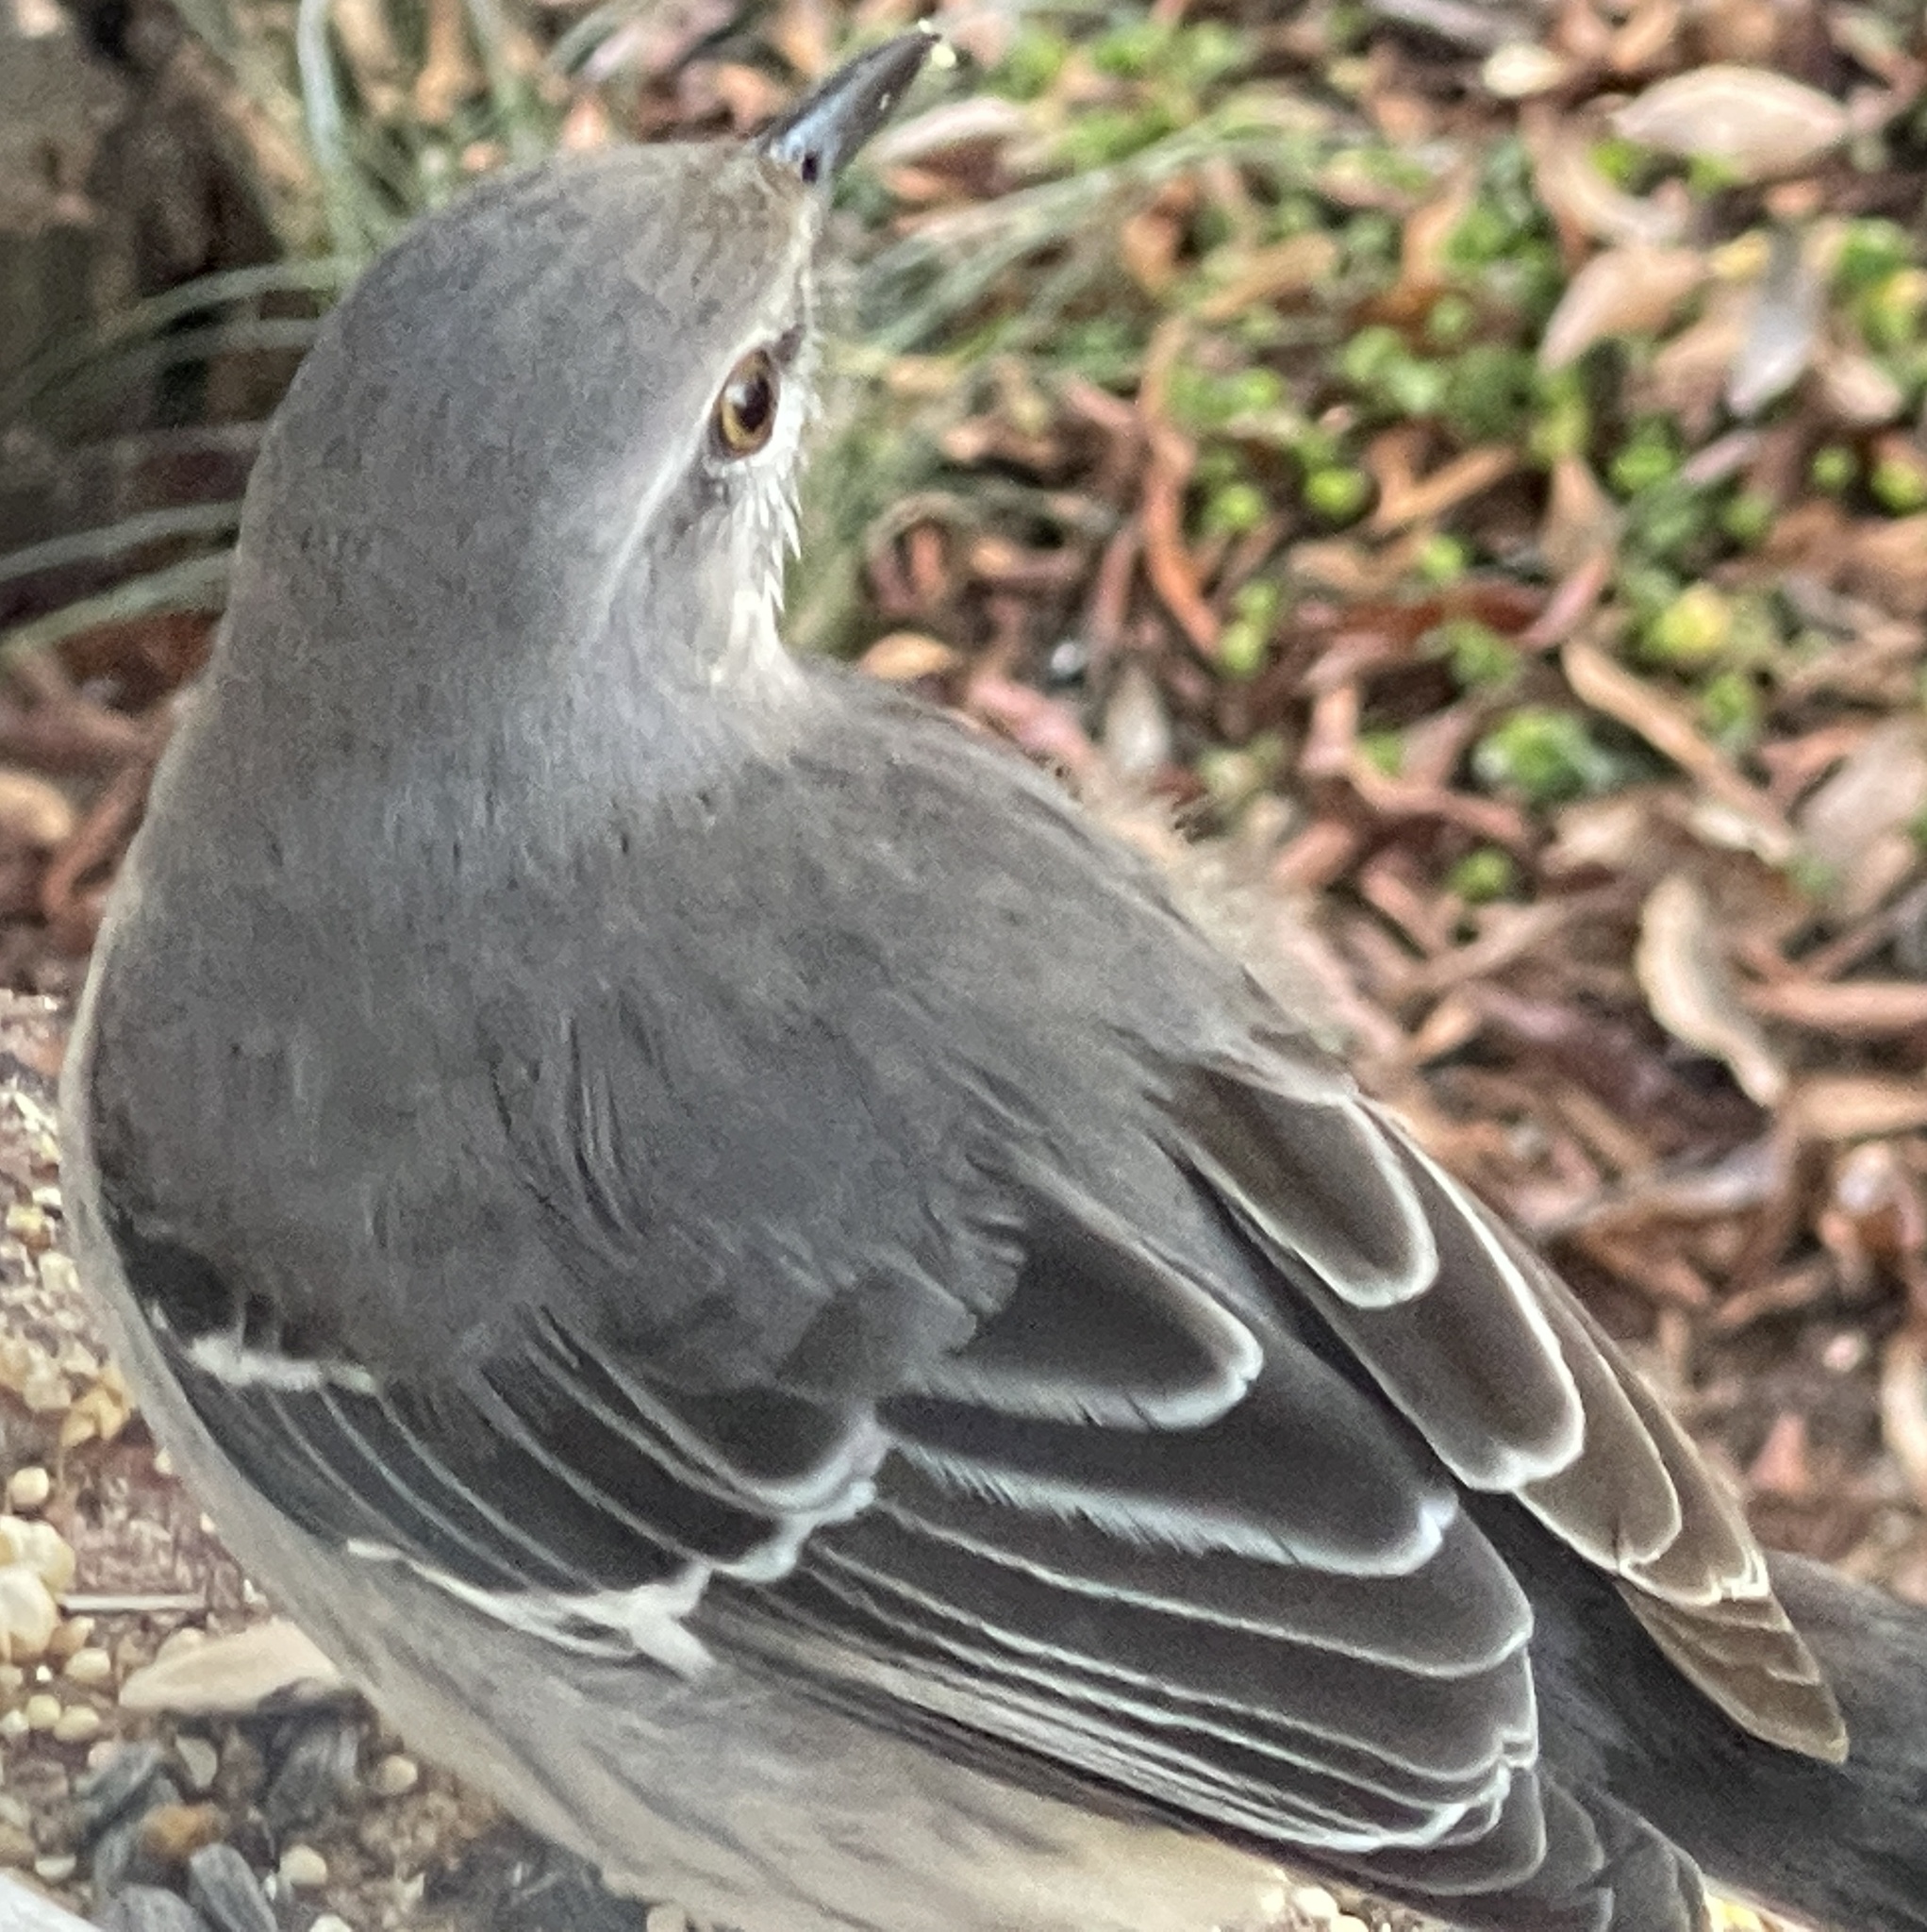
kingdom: Animalia
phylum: Chordata
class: Aves
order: Passeriformes
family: Mimidae
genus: Mimus
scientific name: Mimus polyglottos
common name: Northern mockingbird
